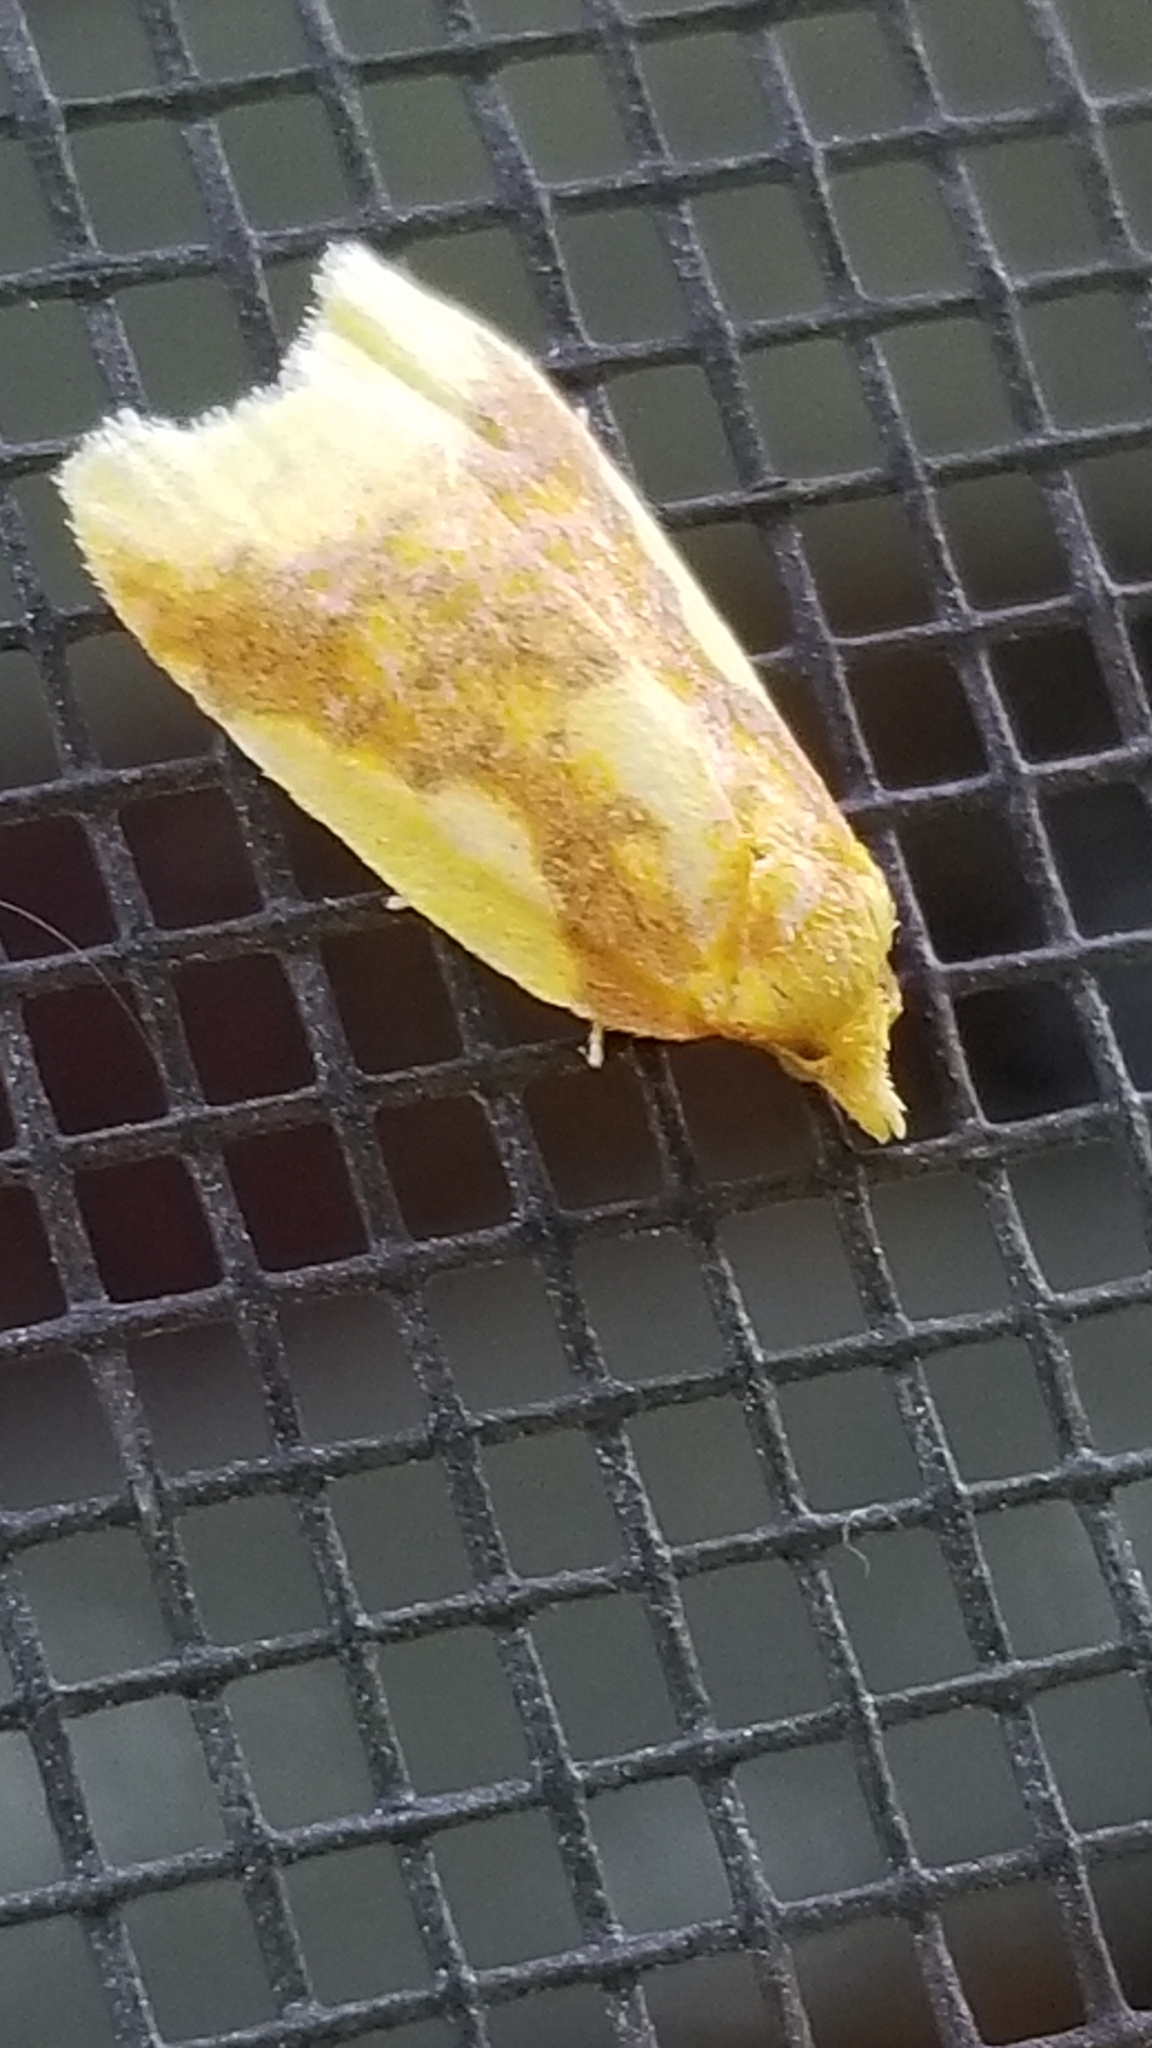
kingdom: Animalia
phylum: Arthropoda
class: Insecta
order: Lepidoptera
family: Tortricidae
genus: Sparganothis
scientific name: Sparganothis pulcherrimana
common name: Beautiful sparganothis
